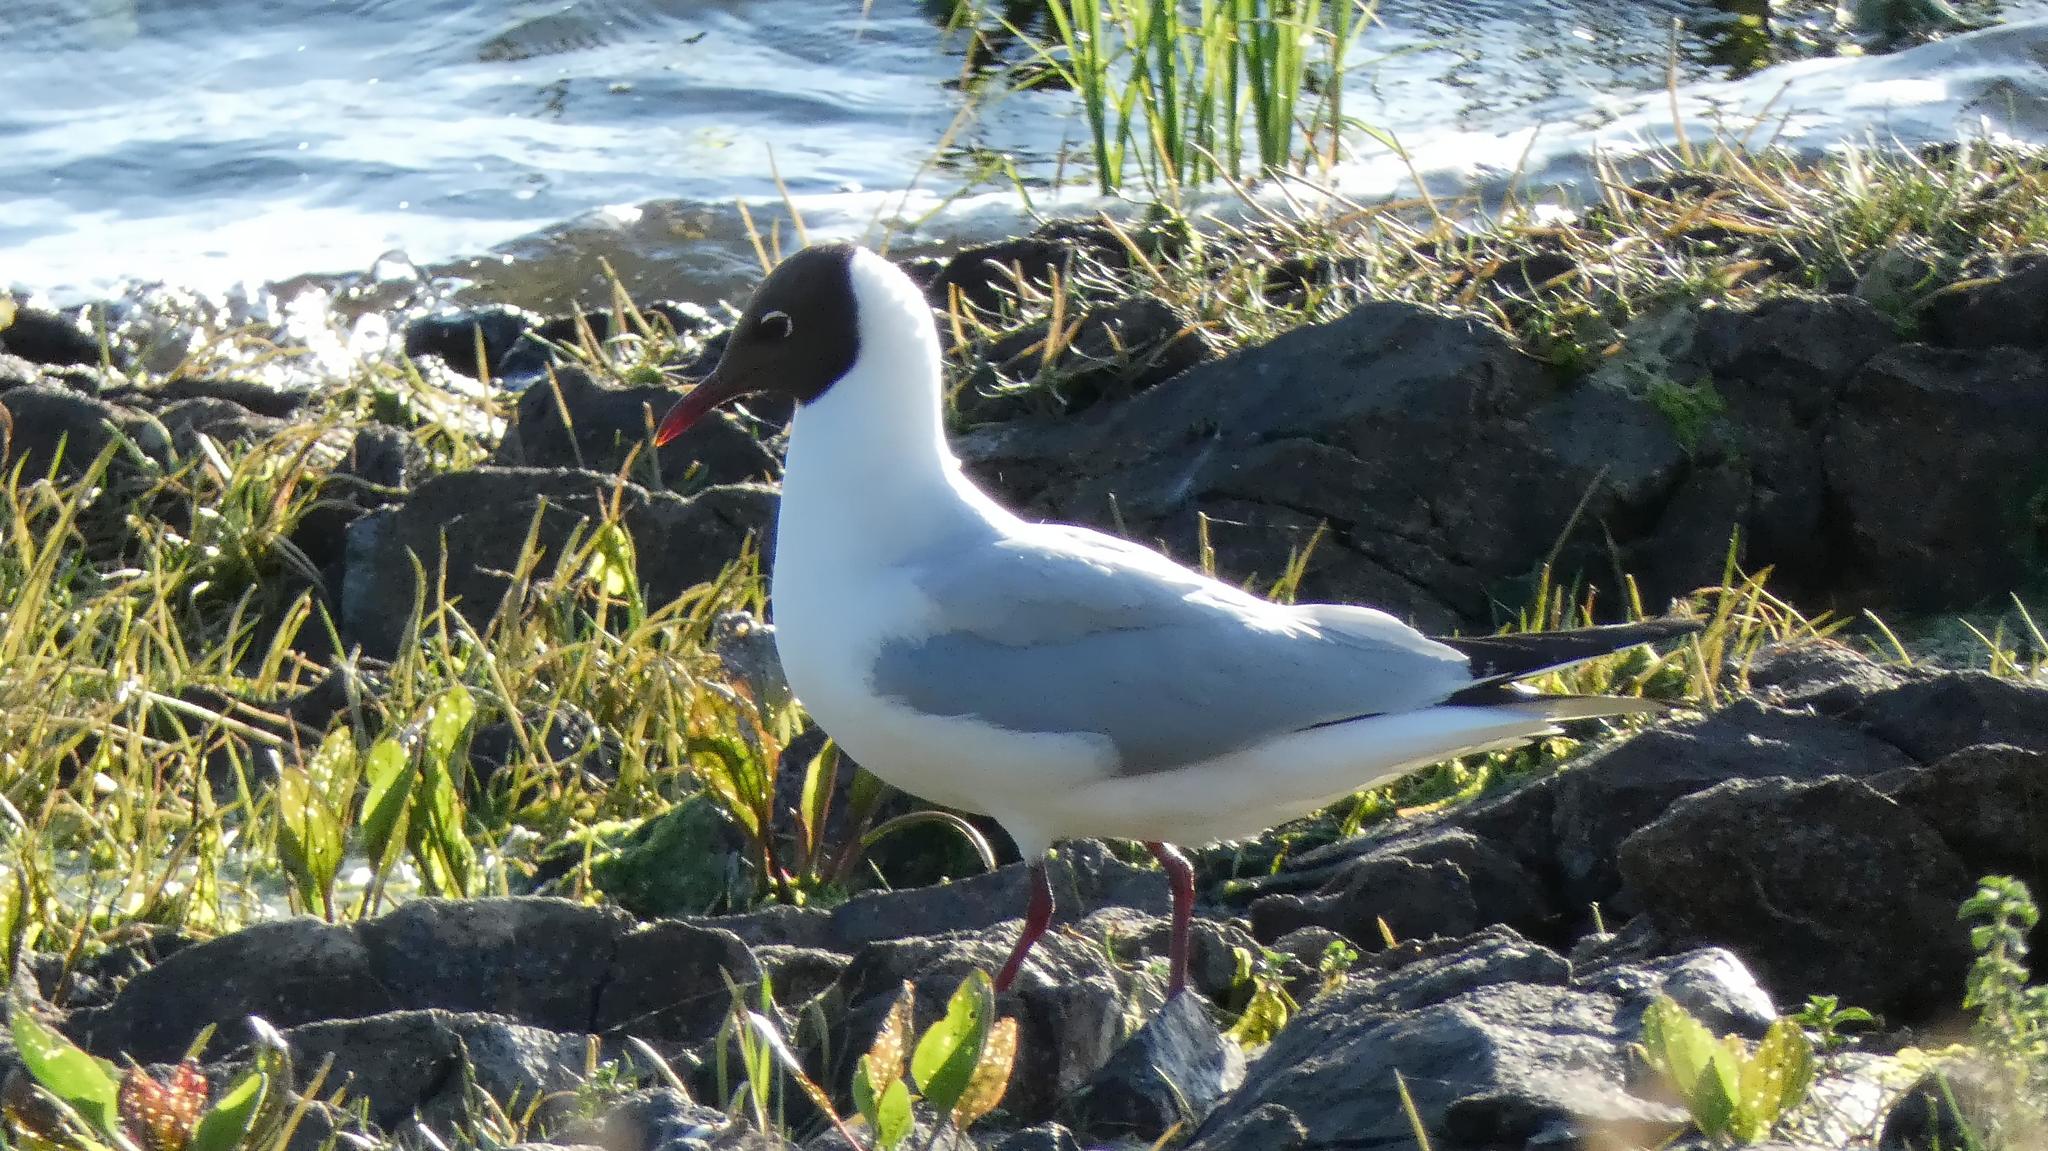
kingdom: Animalia
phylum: Chordata
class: Aves
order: Charadriiformes
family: Laridae
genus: Chroicocephalus
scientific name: Chroicocephalus ridibundus
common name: Black-headed gull
